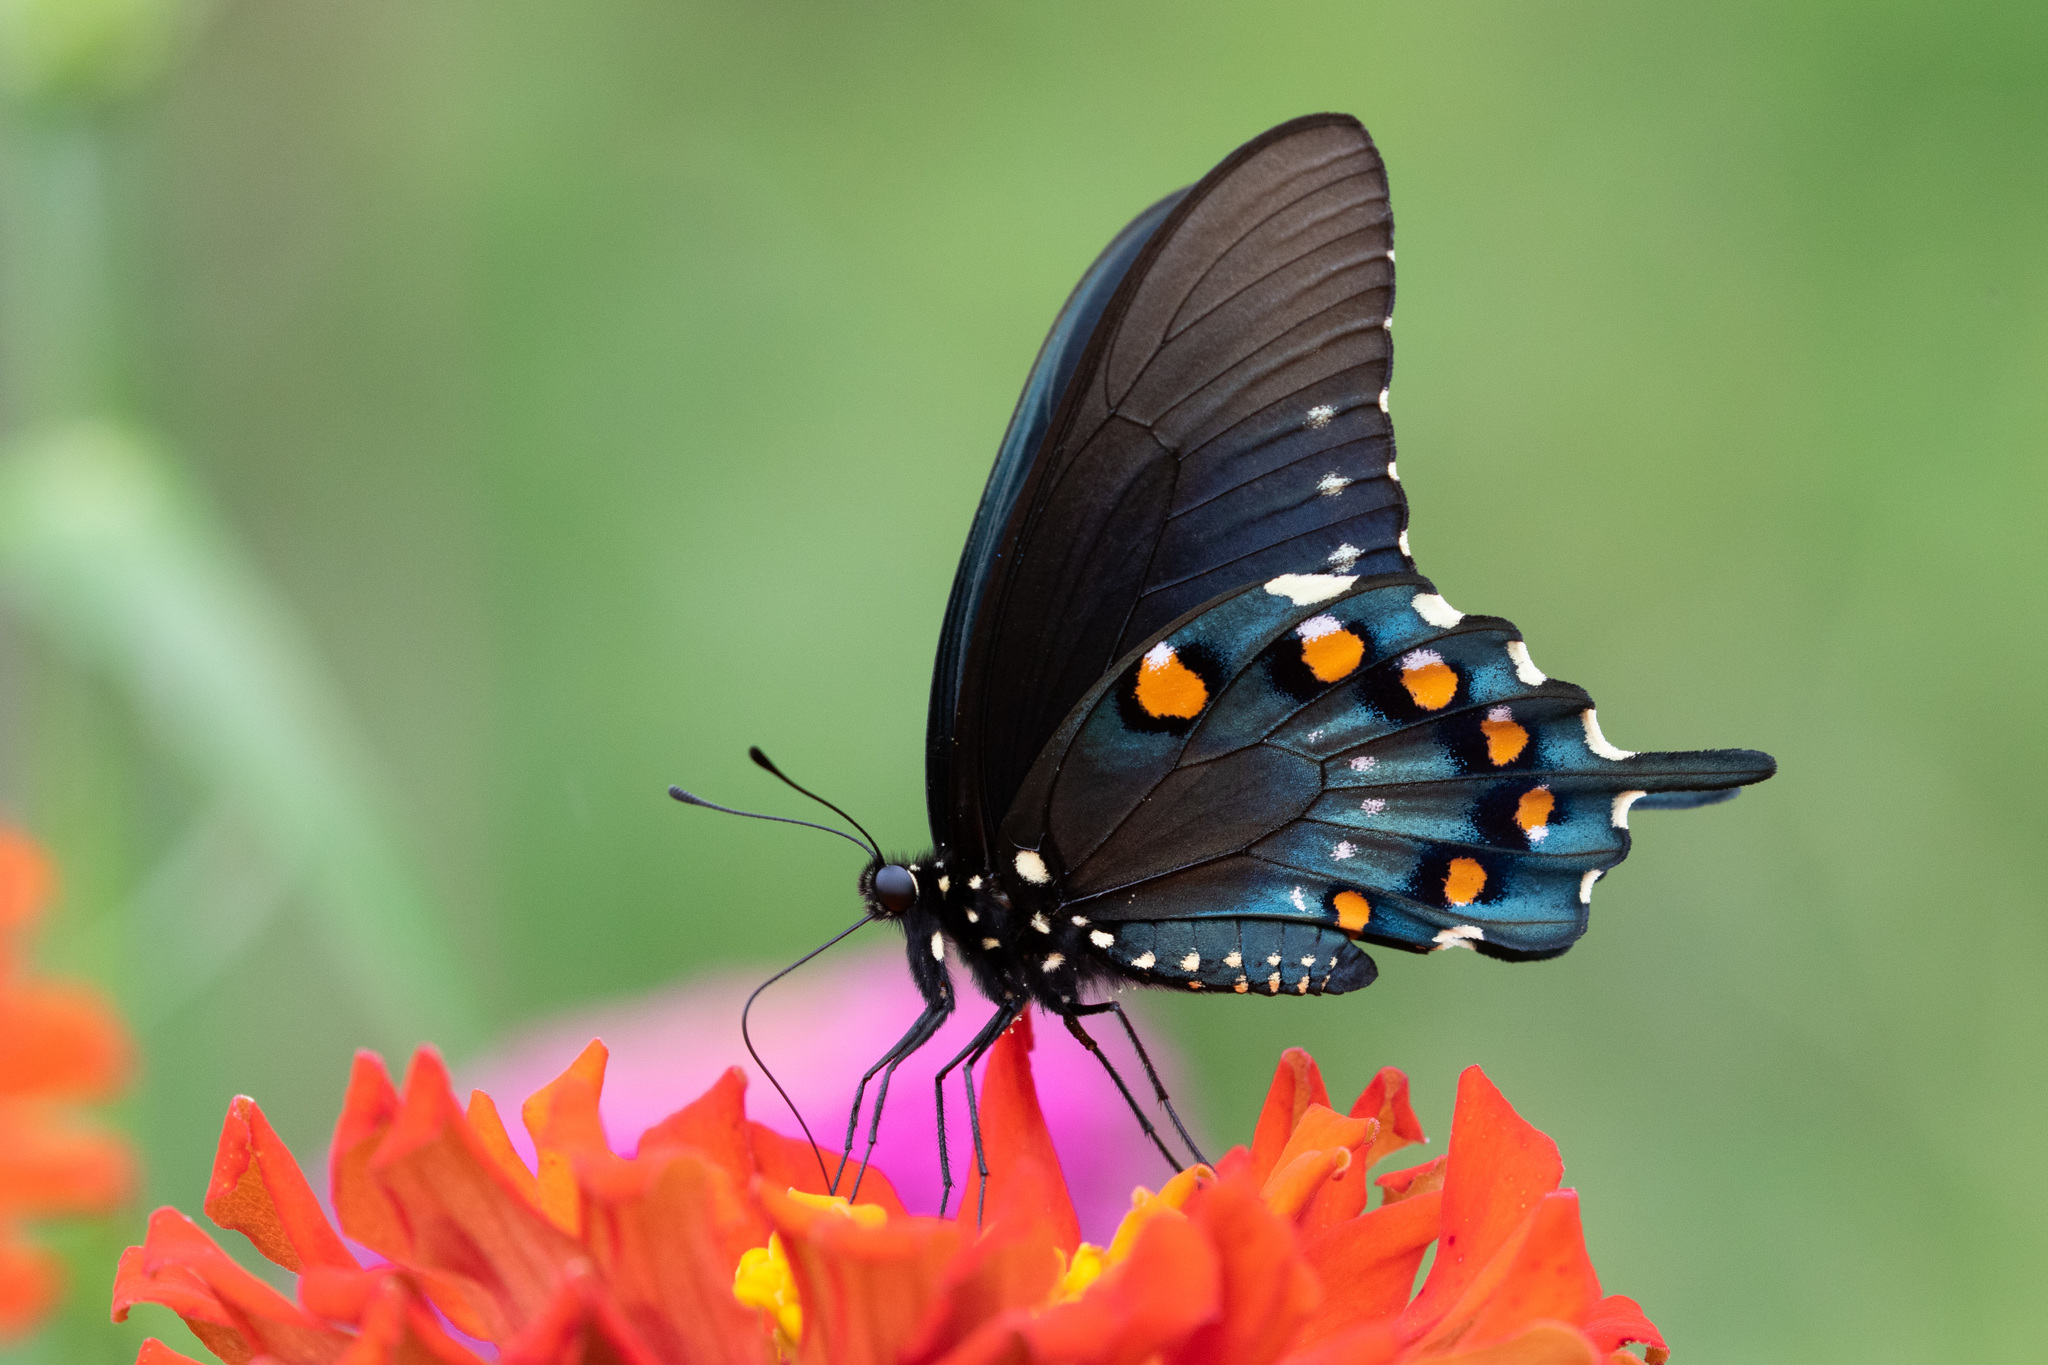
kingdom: Animalia
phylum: Arthropoda
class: Insecta
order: Lepidoptera
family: Papilionidae
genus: Battus
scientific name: Battus philenor
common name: Pipevine swallowtail
